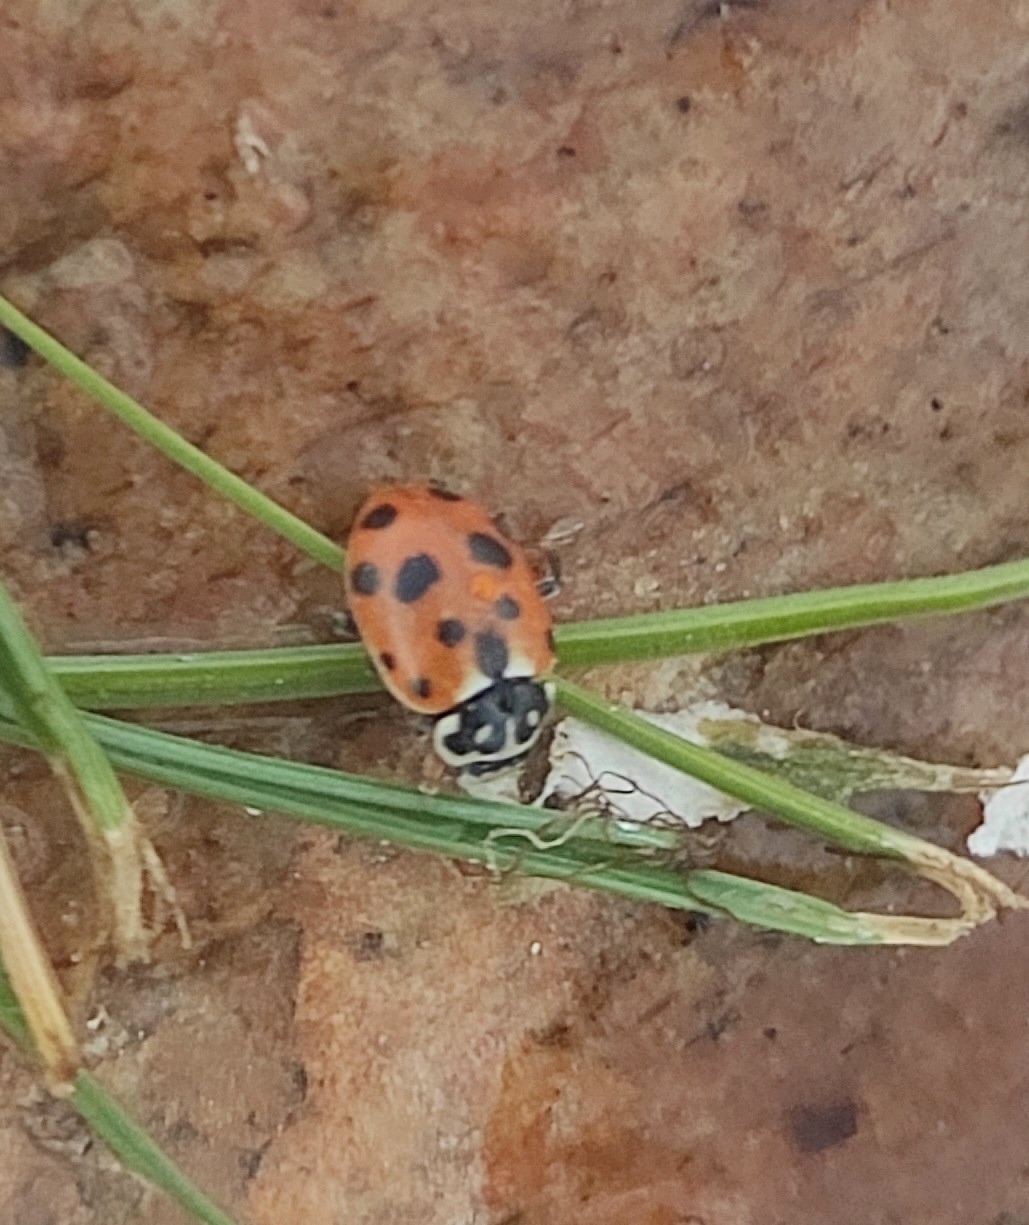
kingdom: Animalia
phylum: Arthropoda
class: Insecta
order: Coleoptera
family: Coccinellidae
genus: Hippodamia
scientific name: Hippodamia variegata
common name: Ladybird beetle
